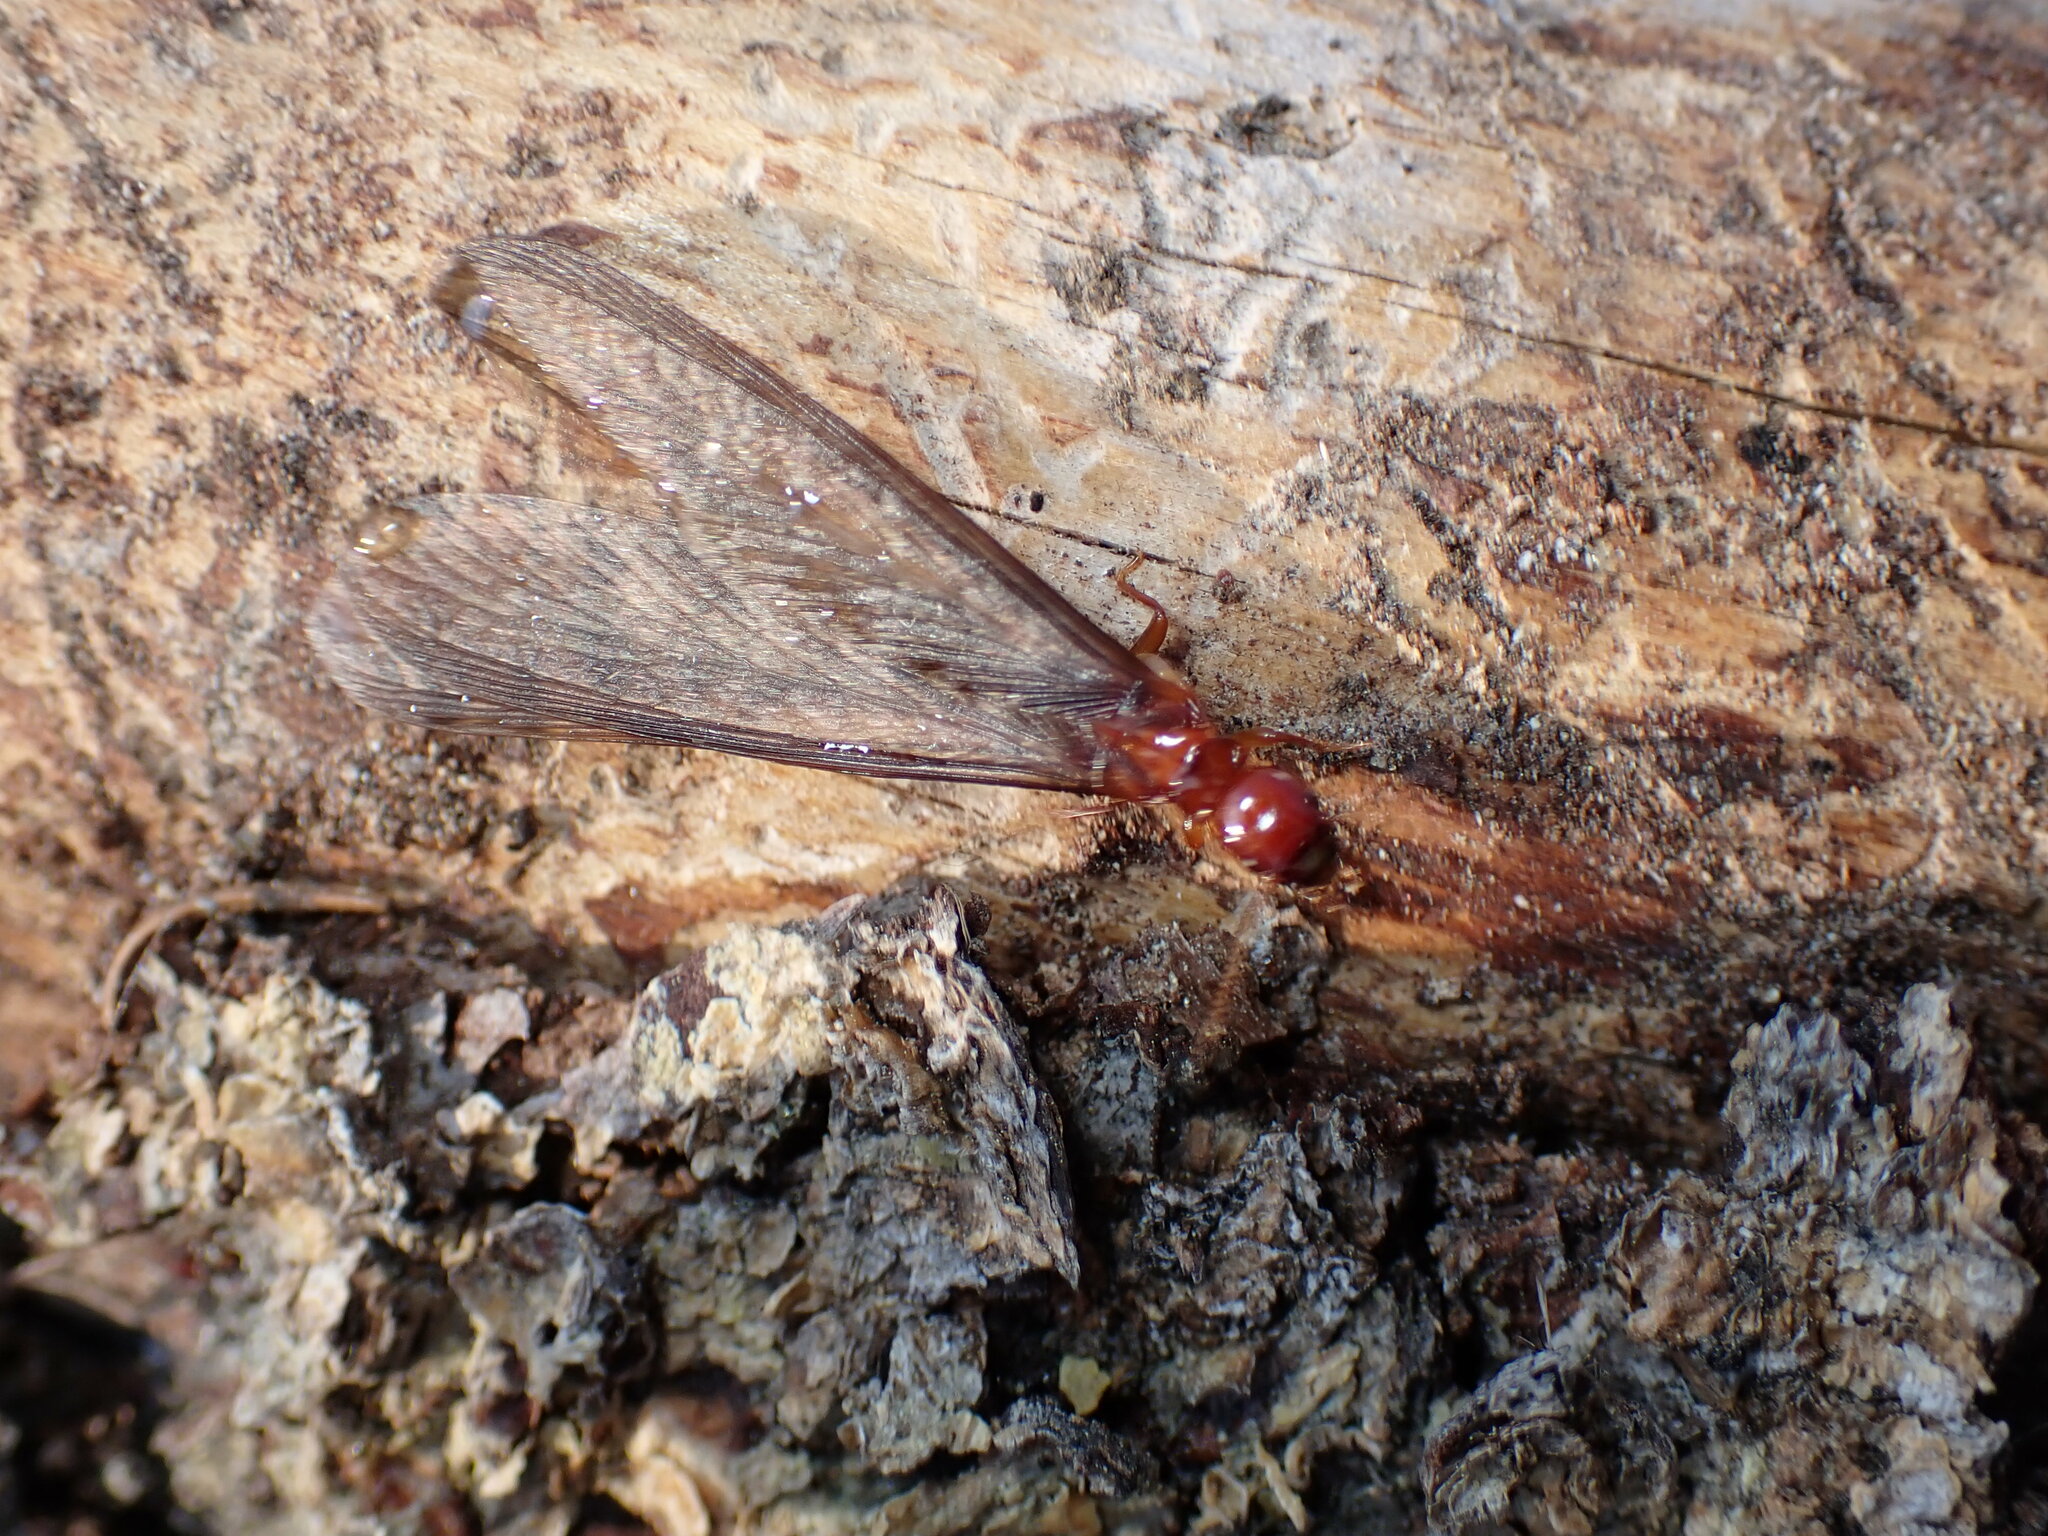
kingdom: Animalia
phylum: Arthropoda
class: Insecta
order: Blattodea
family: Archotermopsidae
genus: Zootermopsis
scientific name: Zootermopsis nevadensis
